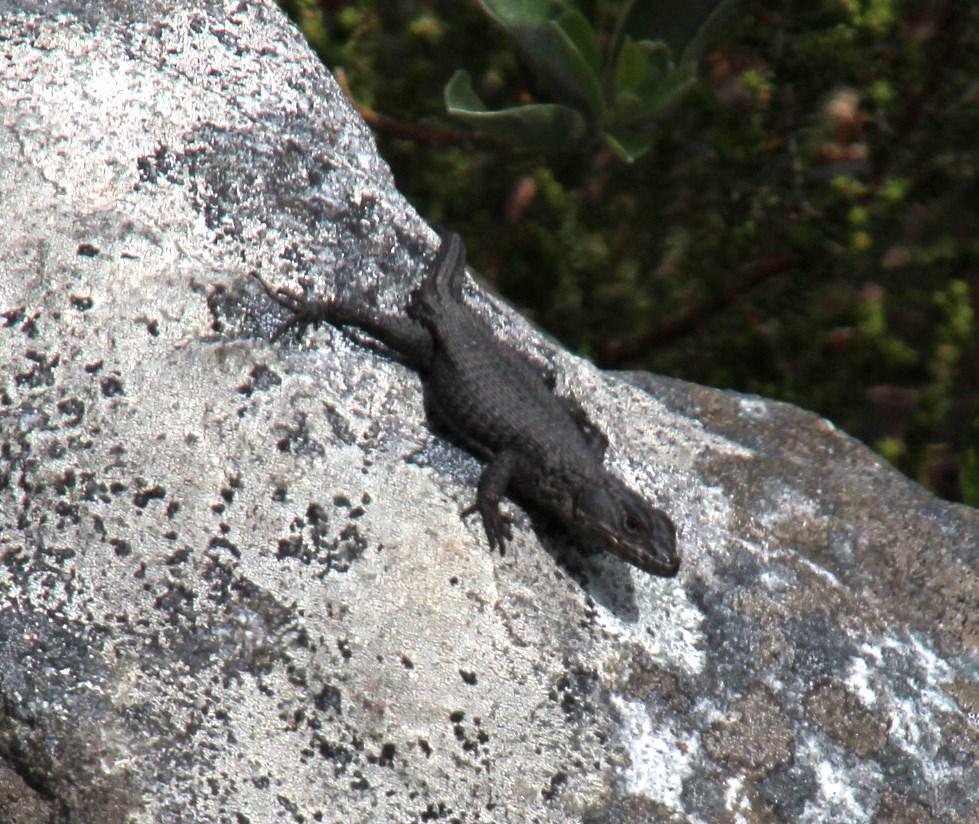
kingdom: Animalia
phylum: Chordata
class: Squamata
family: Cordylidae
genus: Cordylus
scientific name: Cordylus niger
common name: Black girdled lizard
